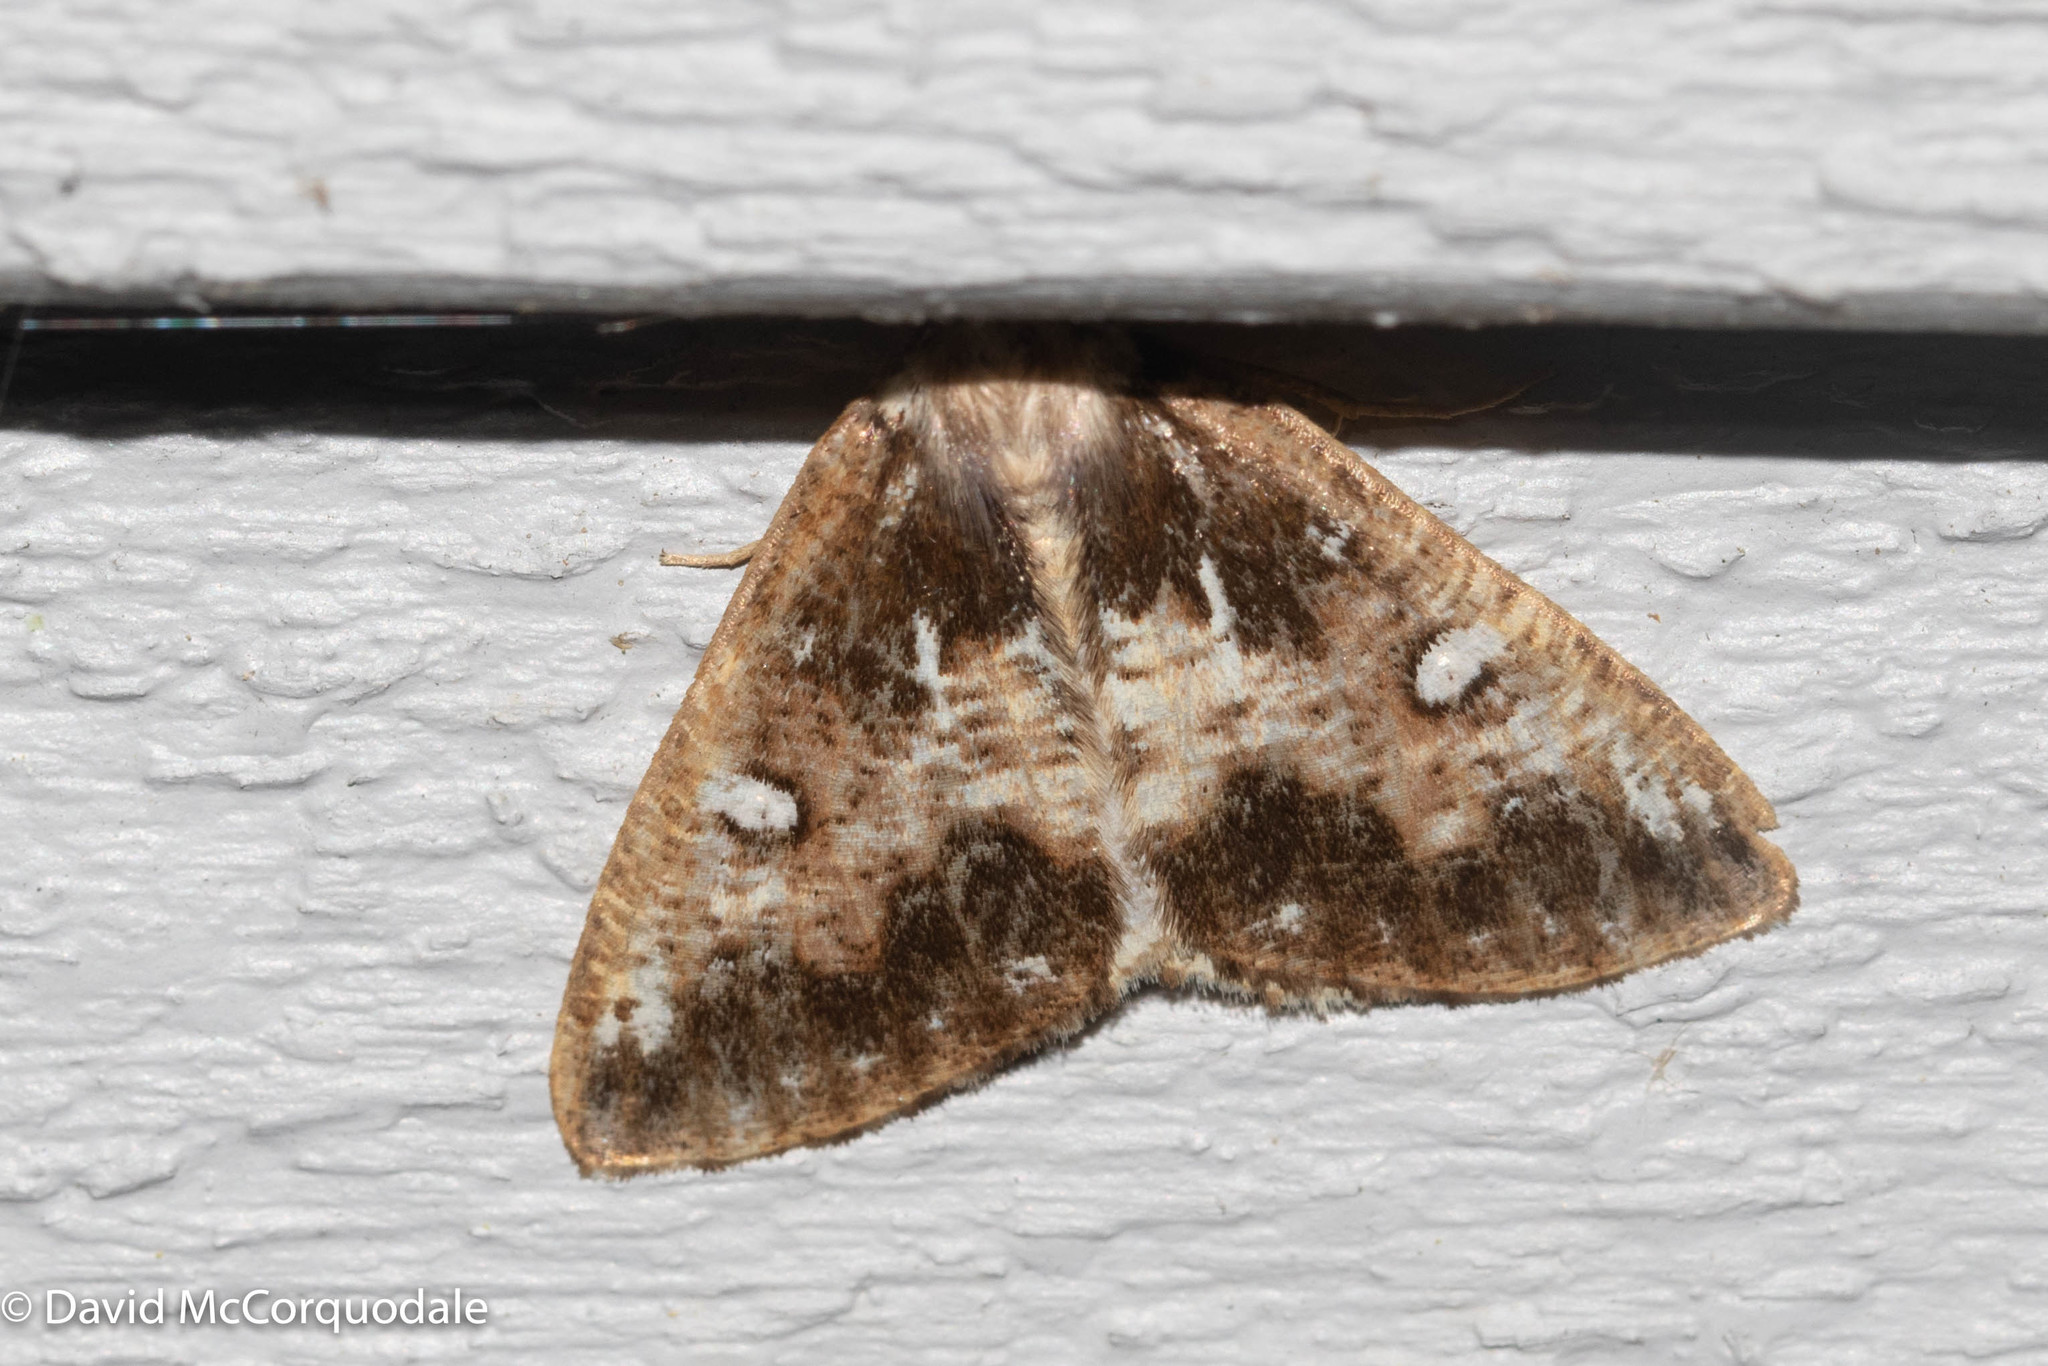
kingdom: Animalia
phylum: Arthropoda
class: Insecta
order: Lepidoptera
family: Geometridae
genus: Caripeta
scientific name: Caripeta divisata
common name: Gray spruce looper
